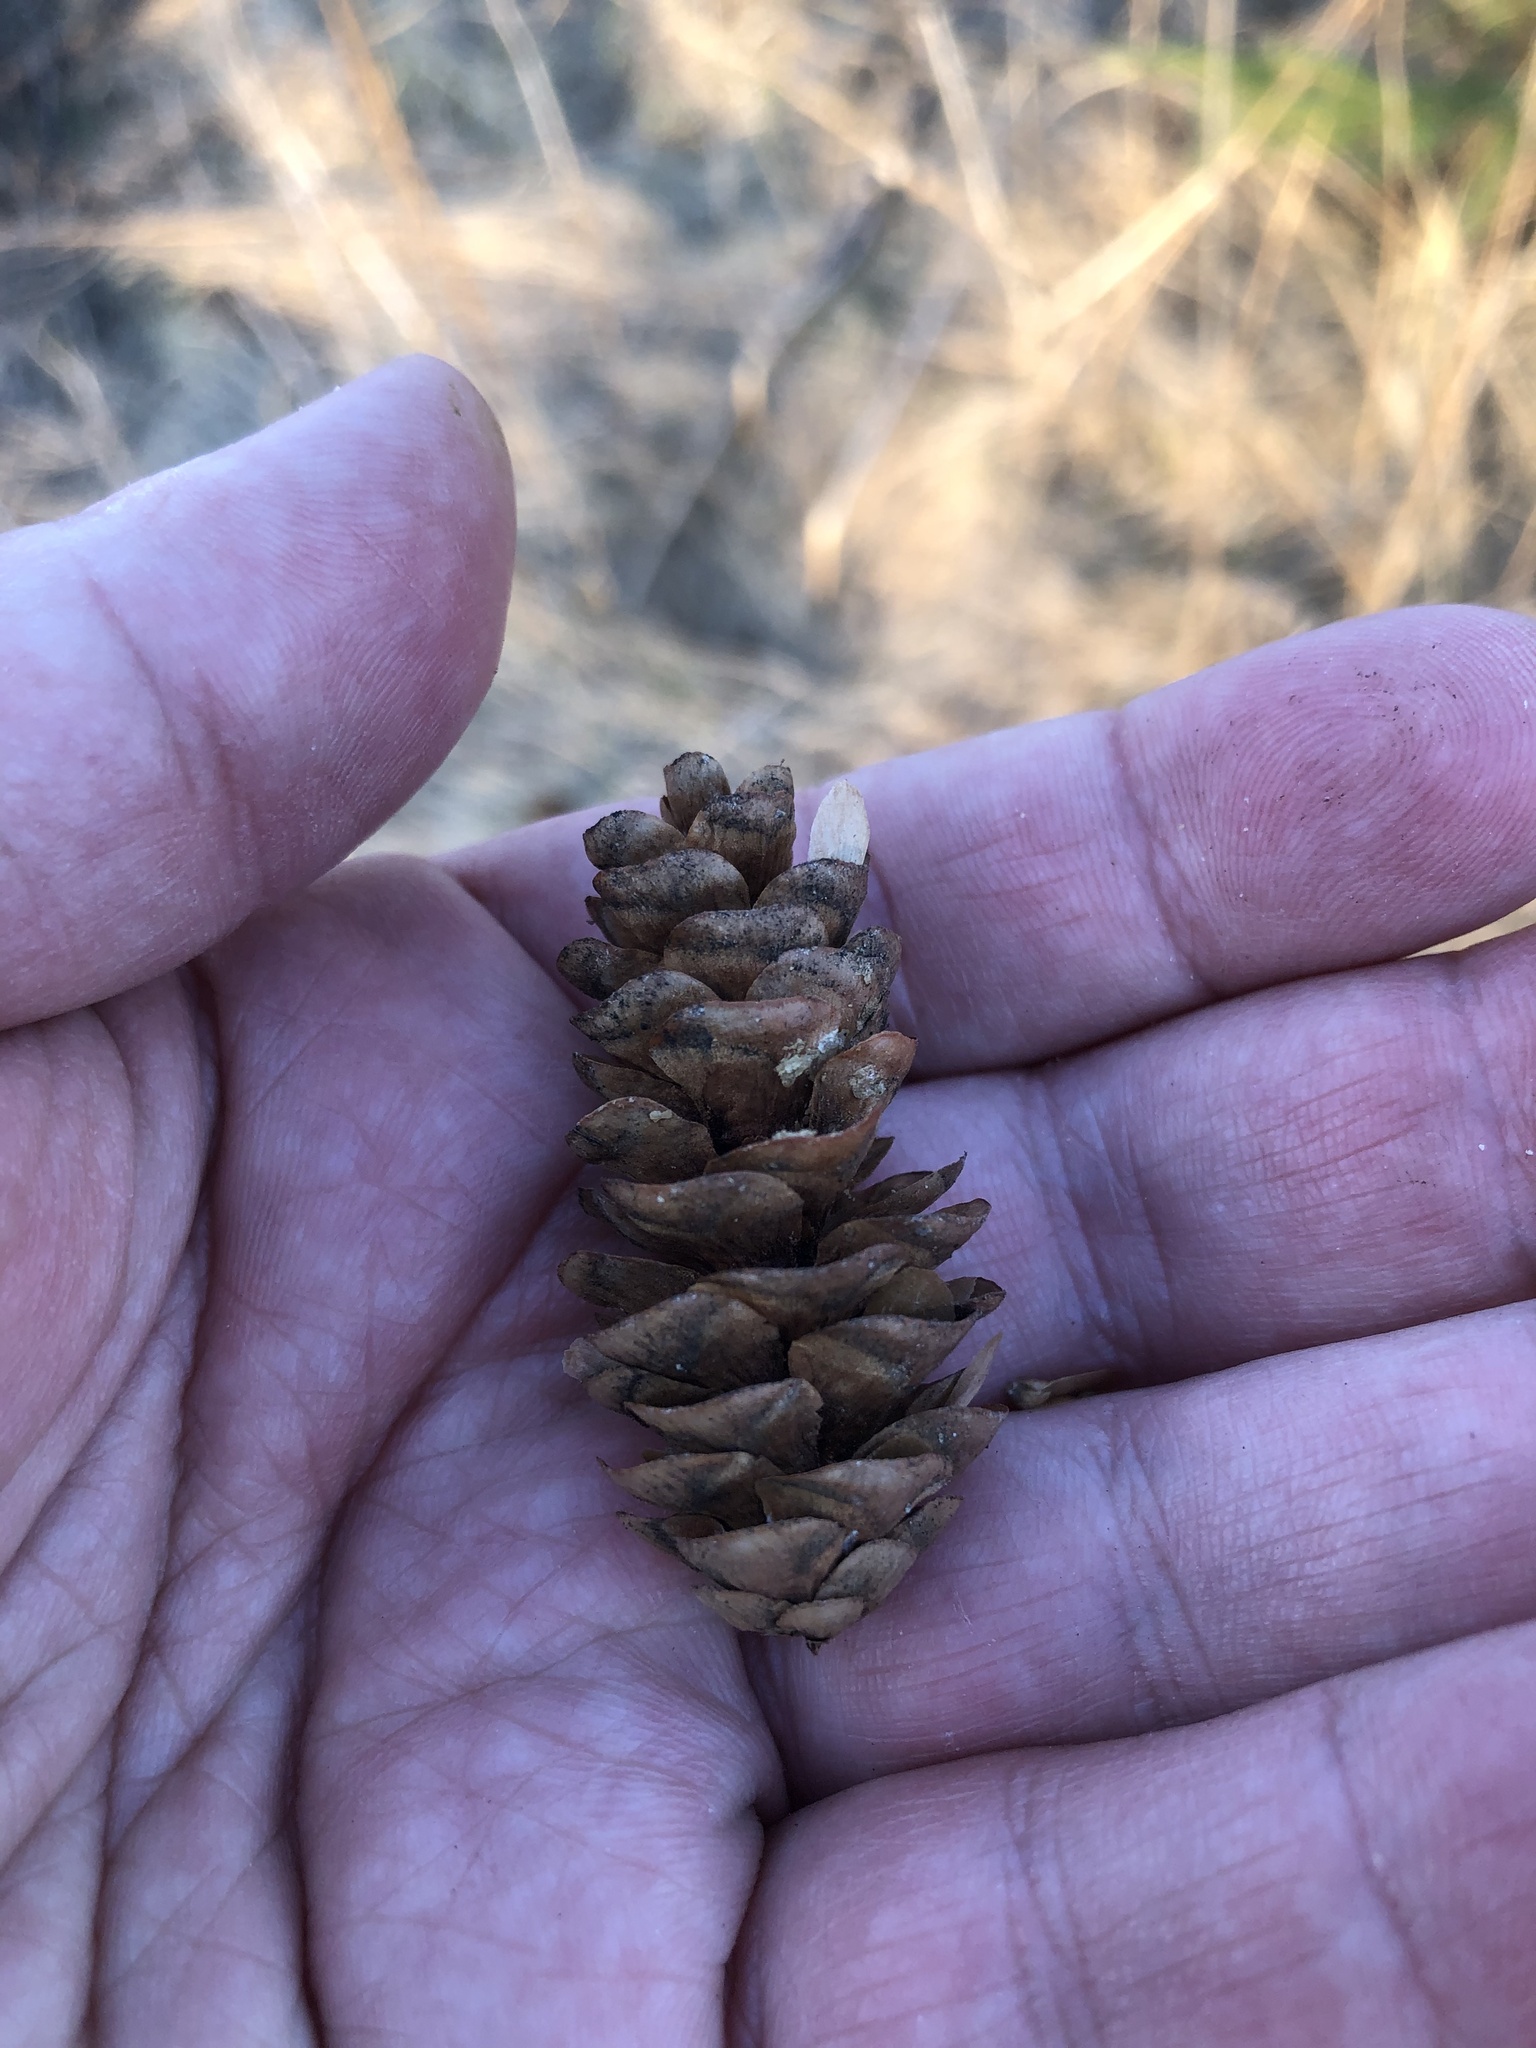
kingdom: Plantae
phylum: Tracheophyta
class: Pinopsida
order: Pinales
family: Pinaceae
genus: Picea
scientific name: Picea glauca
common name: White spruce
